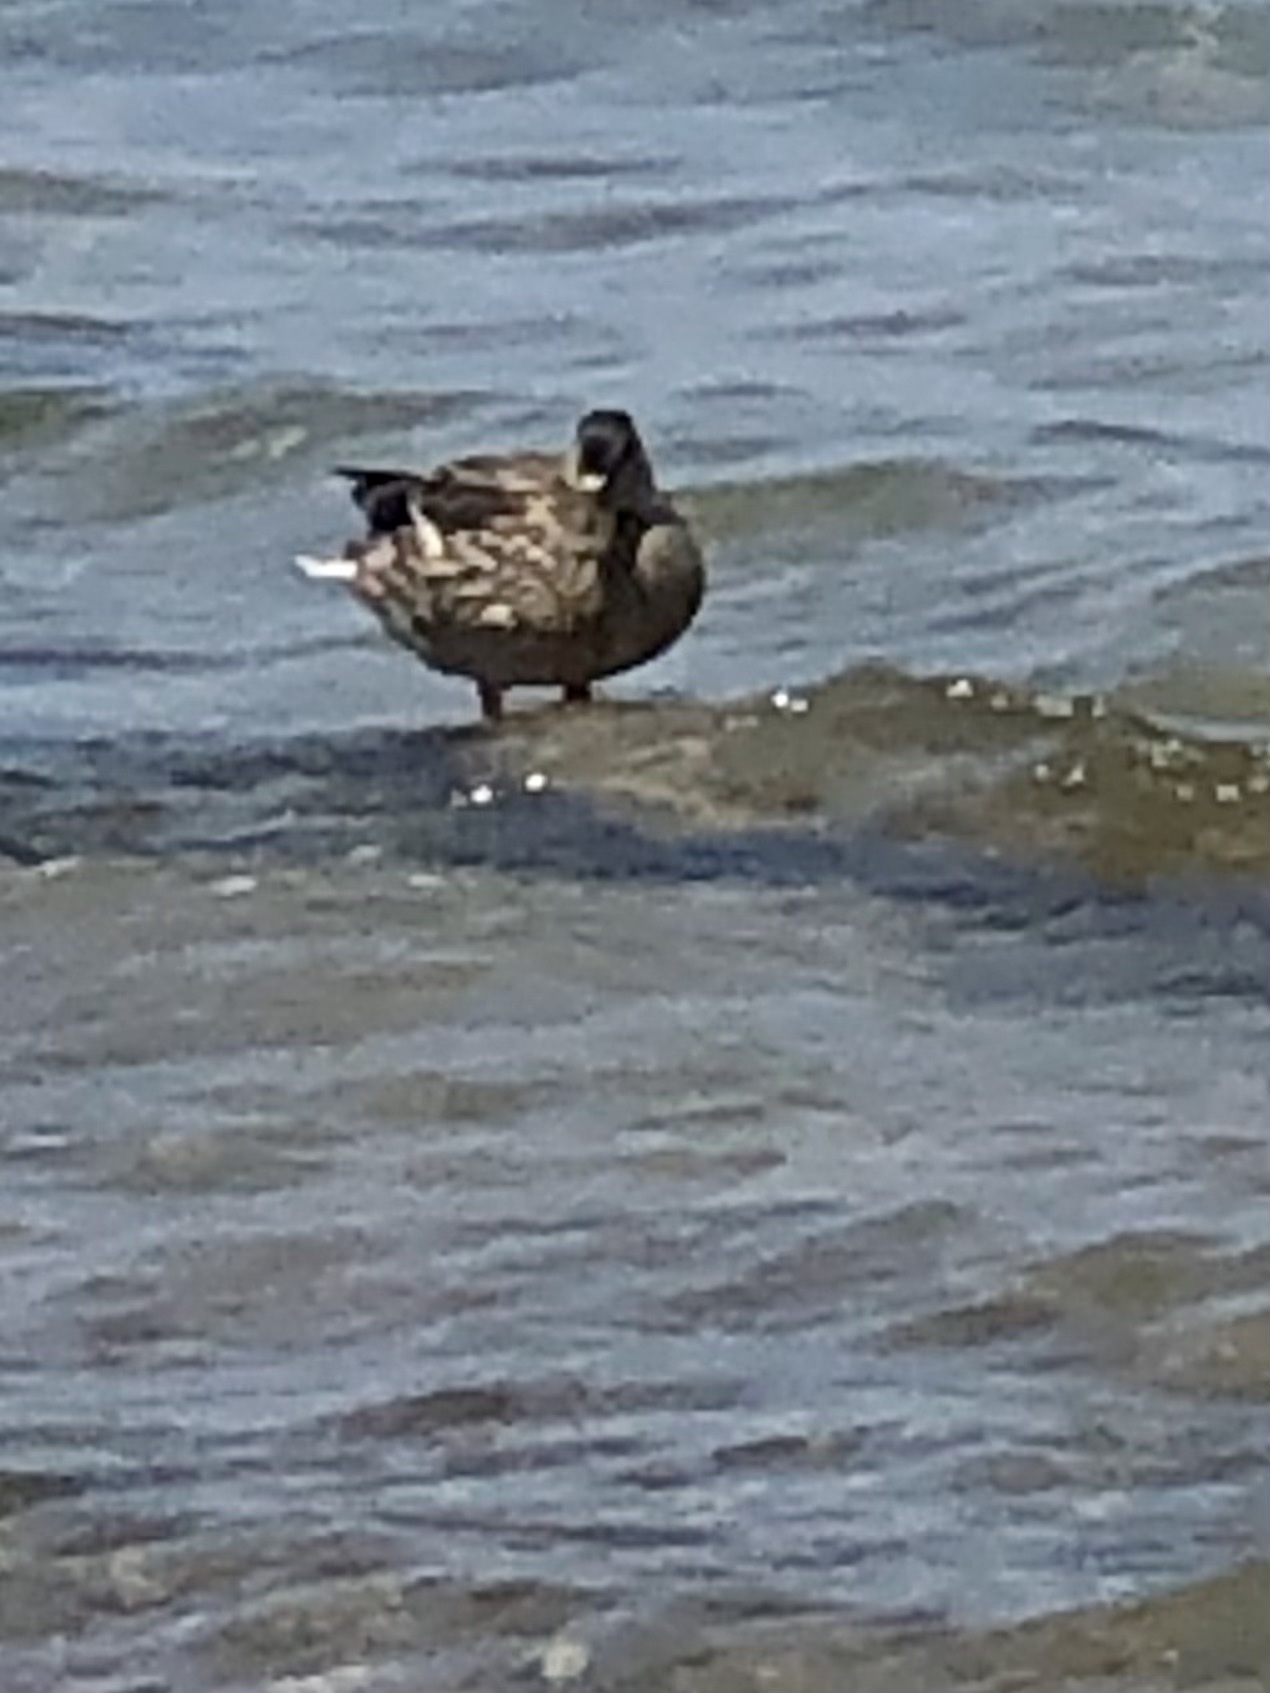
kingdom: Animalia
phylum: Chordata
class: Aves
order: Anseriformes
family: Anatidae
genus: Anas
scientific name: Anas platyrhynchos
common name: Mallard
